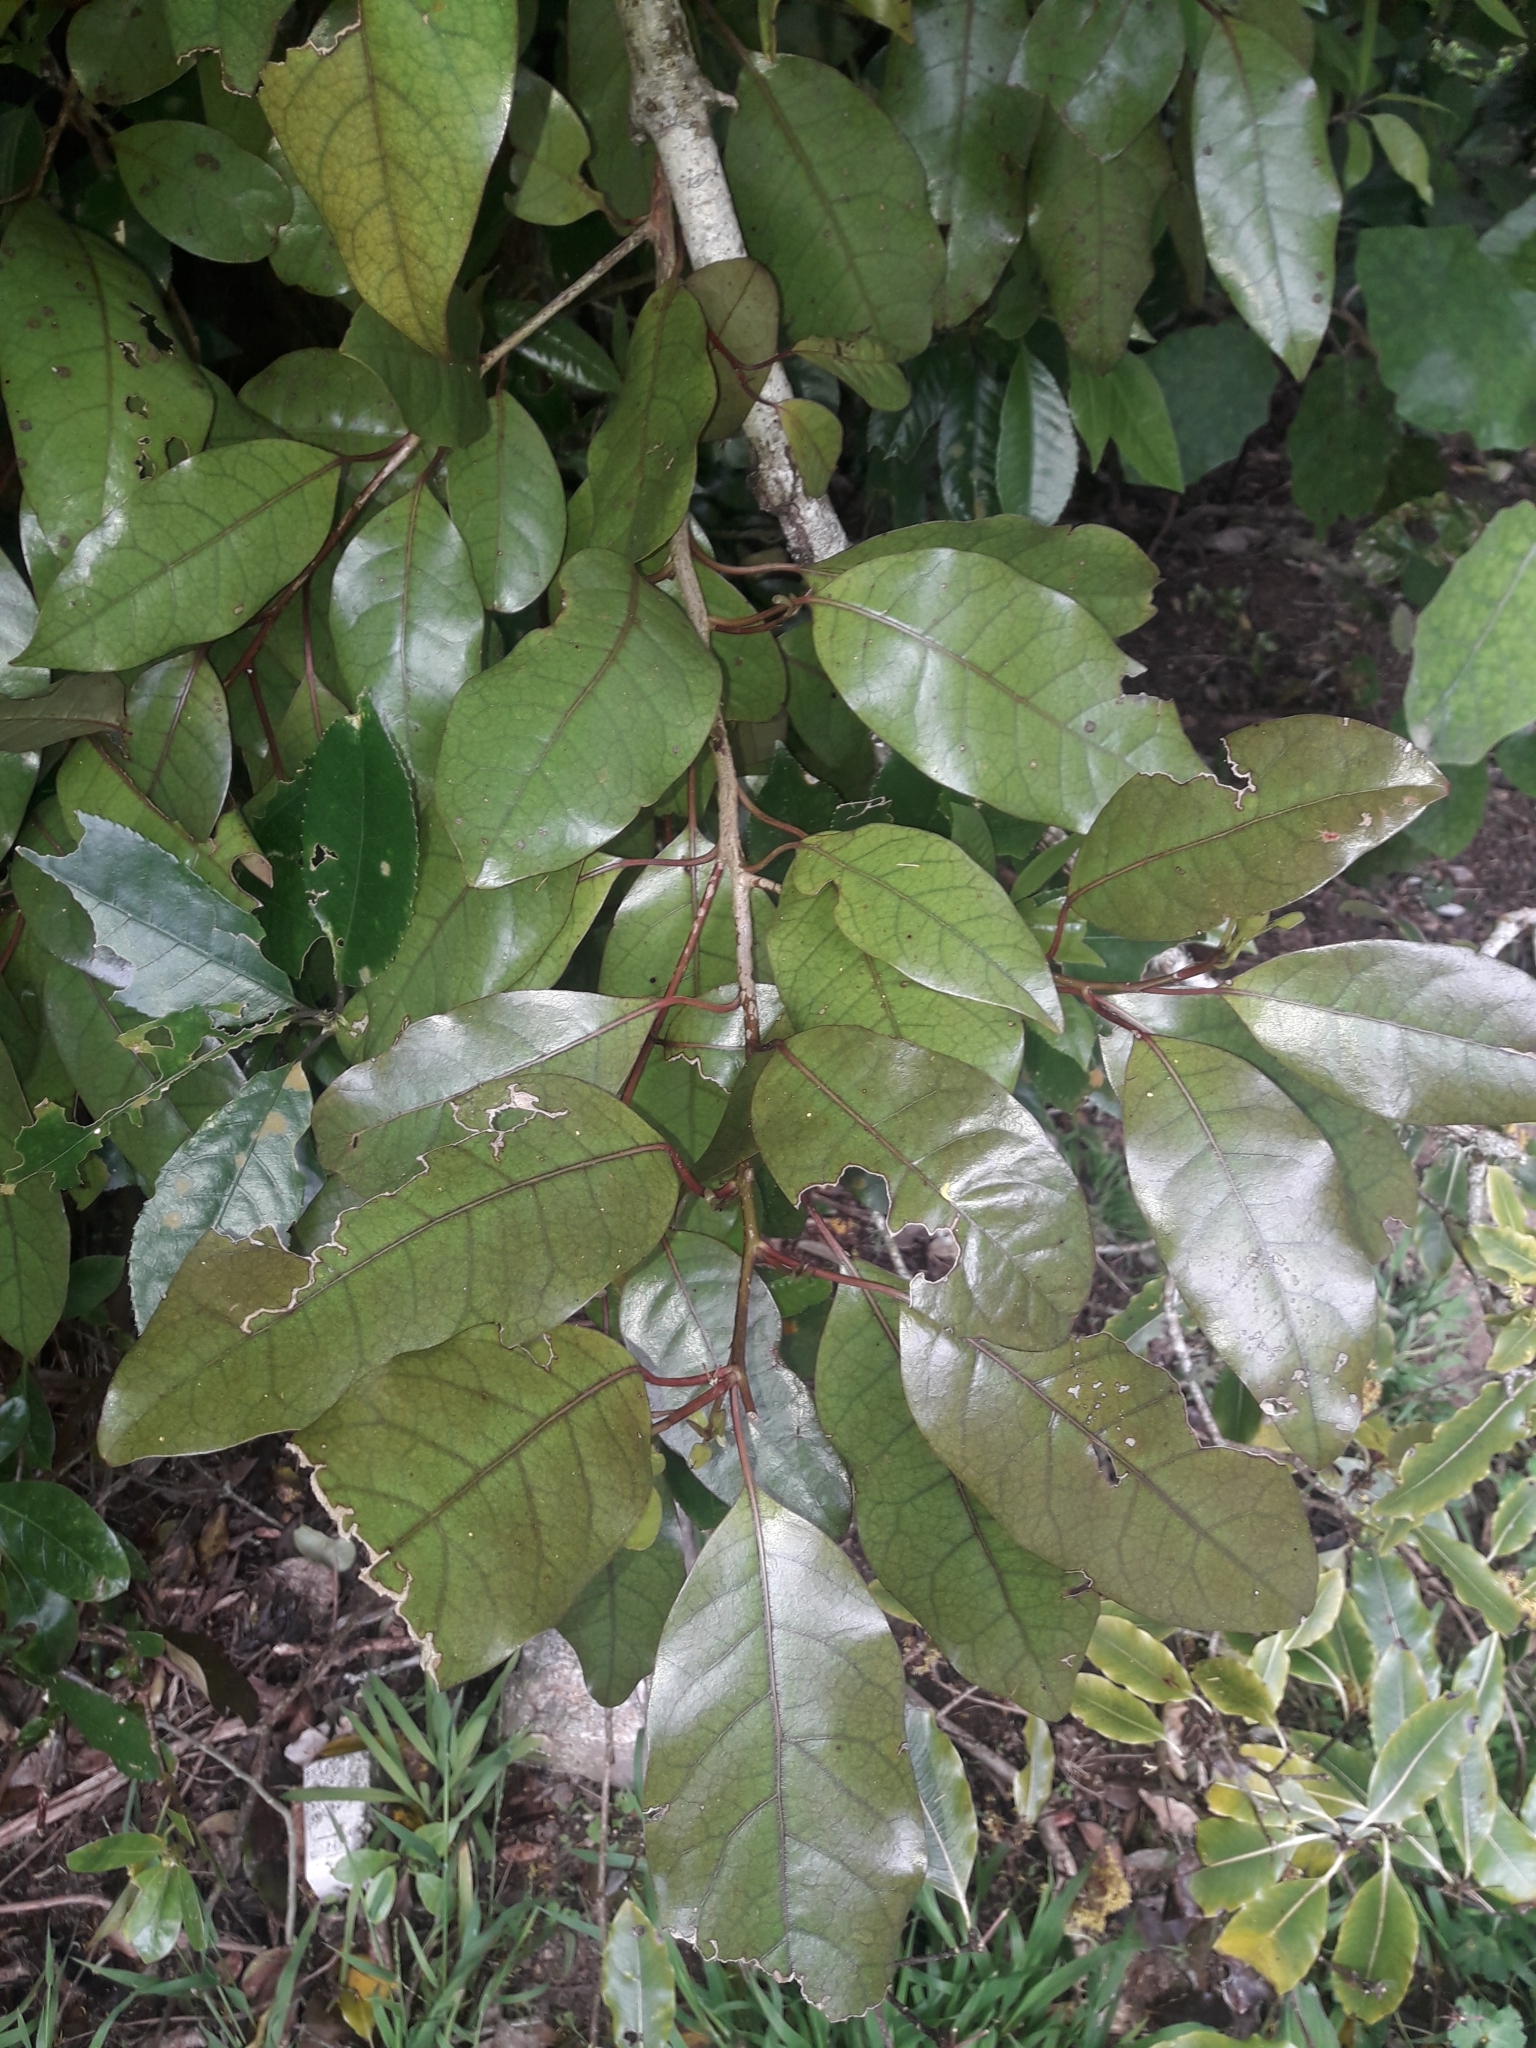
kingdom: Plantae
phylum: Tracheophyta
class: Magnoliopsida
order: Laurales
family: Lauraceae
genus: Litsea
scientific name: Litsea calicaris
